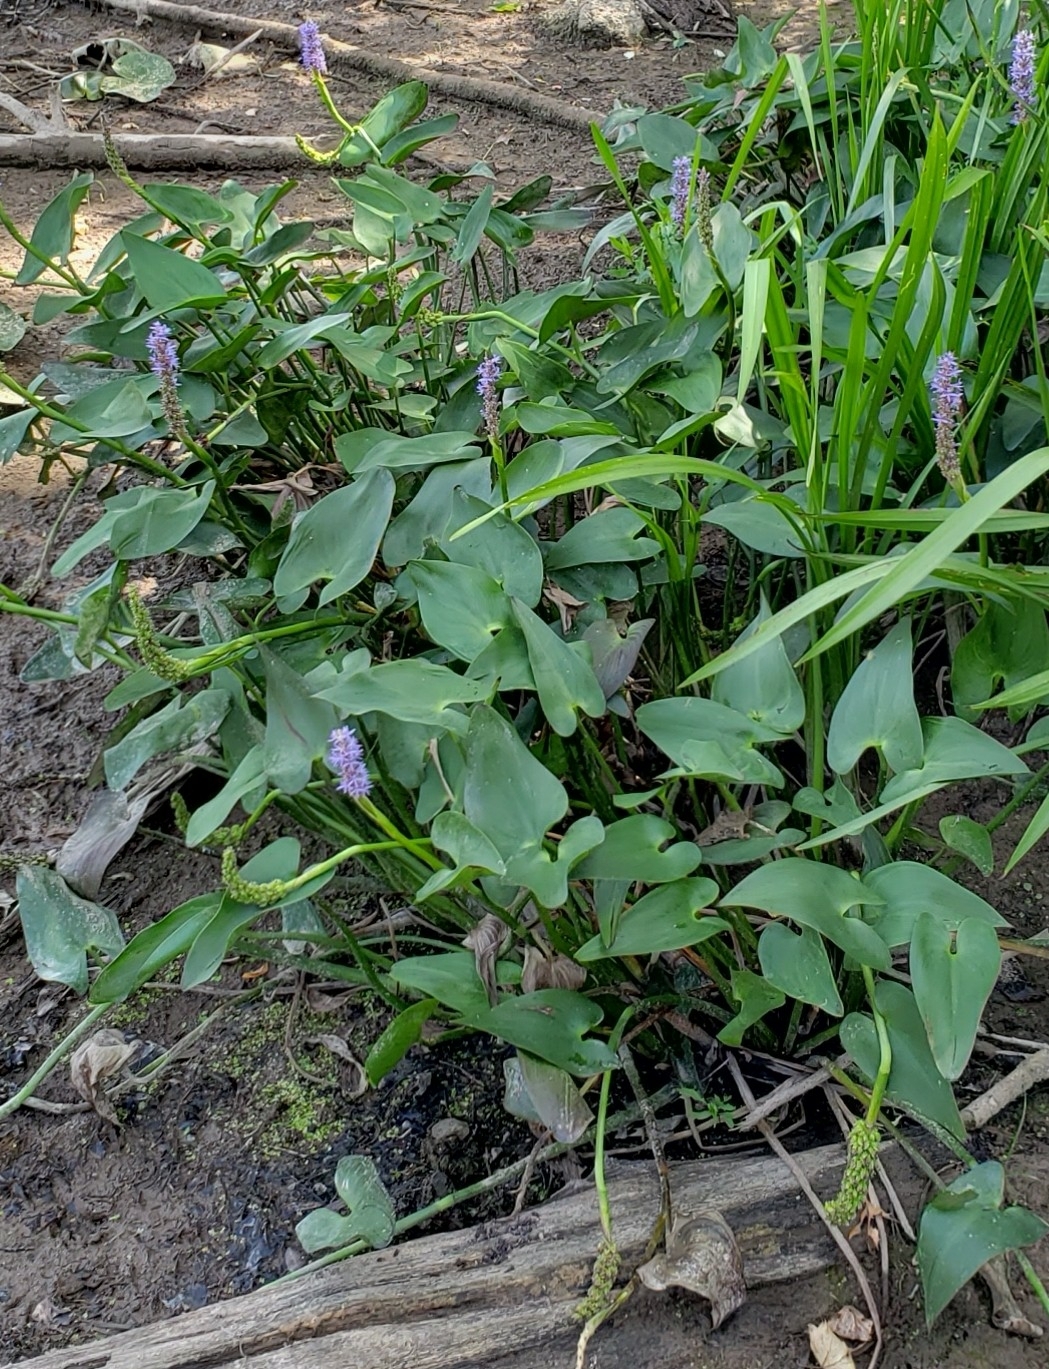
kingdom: Plantae
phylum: Tracheophyta
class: Liliopsida
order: Commelinales
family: Pontederiaceae
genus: Pontederia
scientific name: Pontederia cordata
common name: Pickerelweed
